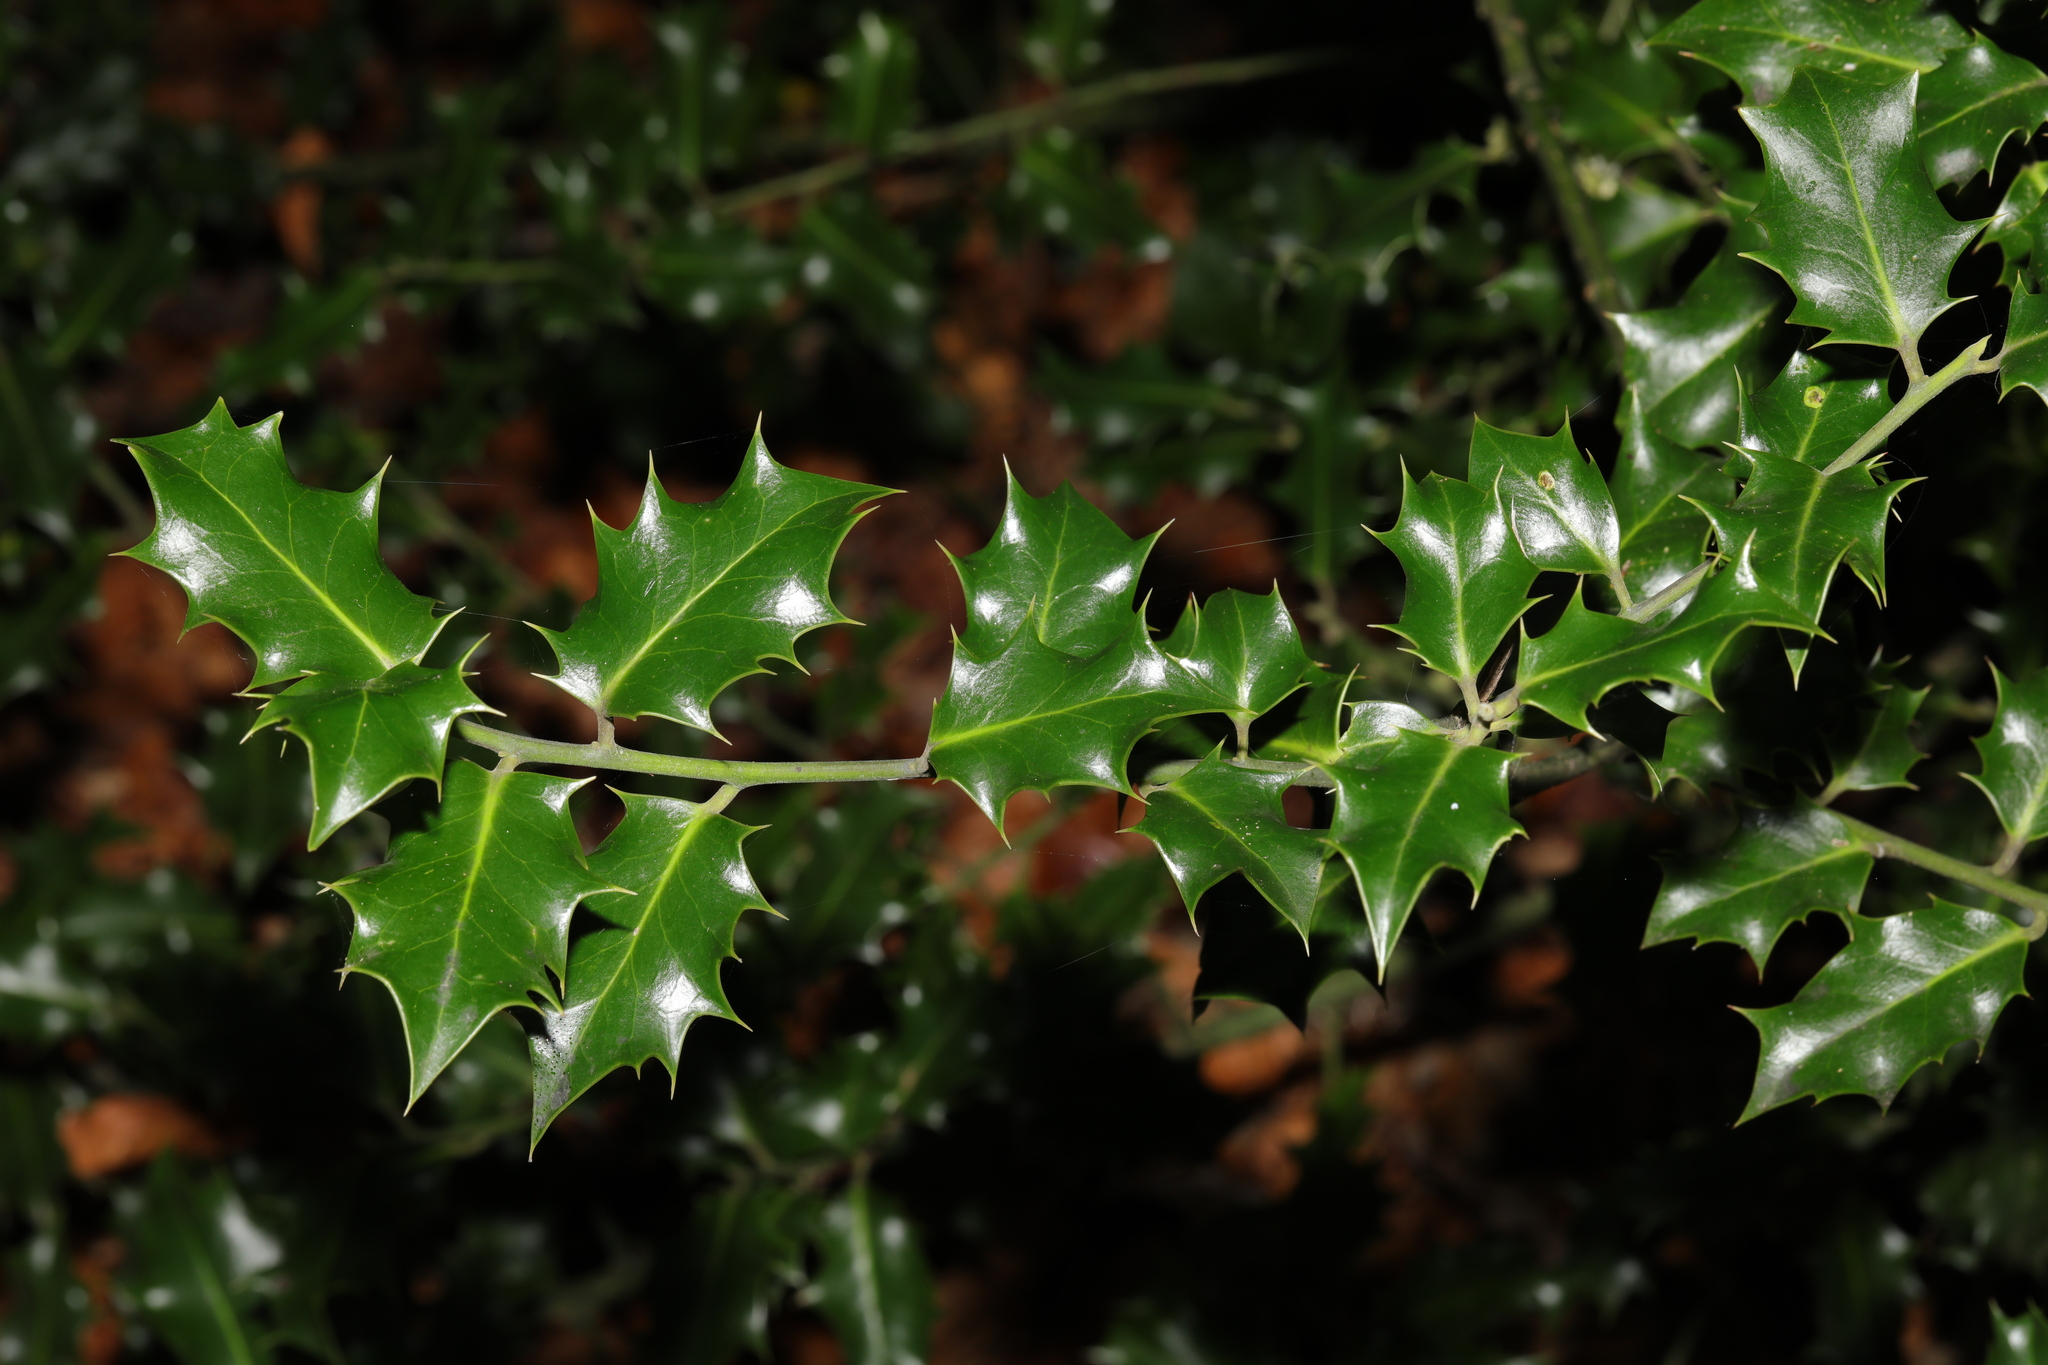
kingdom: Plantae
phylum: Tracheophyta
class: Magnoliopsida
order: Aquifoliales
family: Aquifoliaceae
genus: Ilex
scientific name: Ilex aquifolium
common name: English holly
